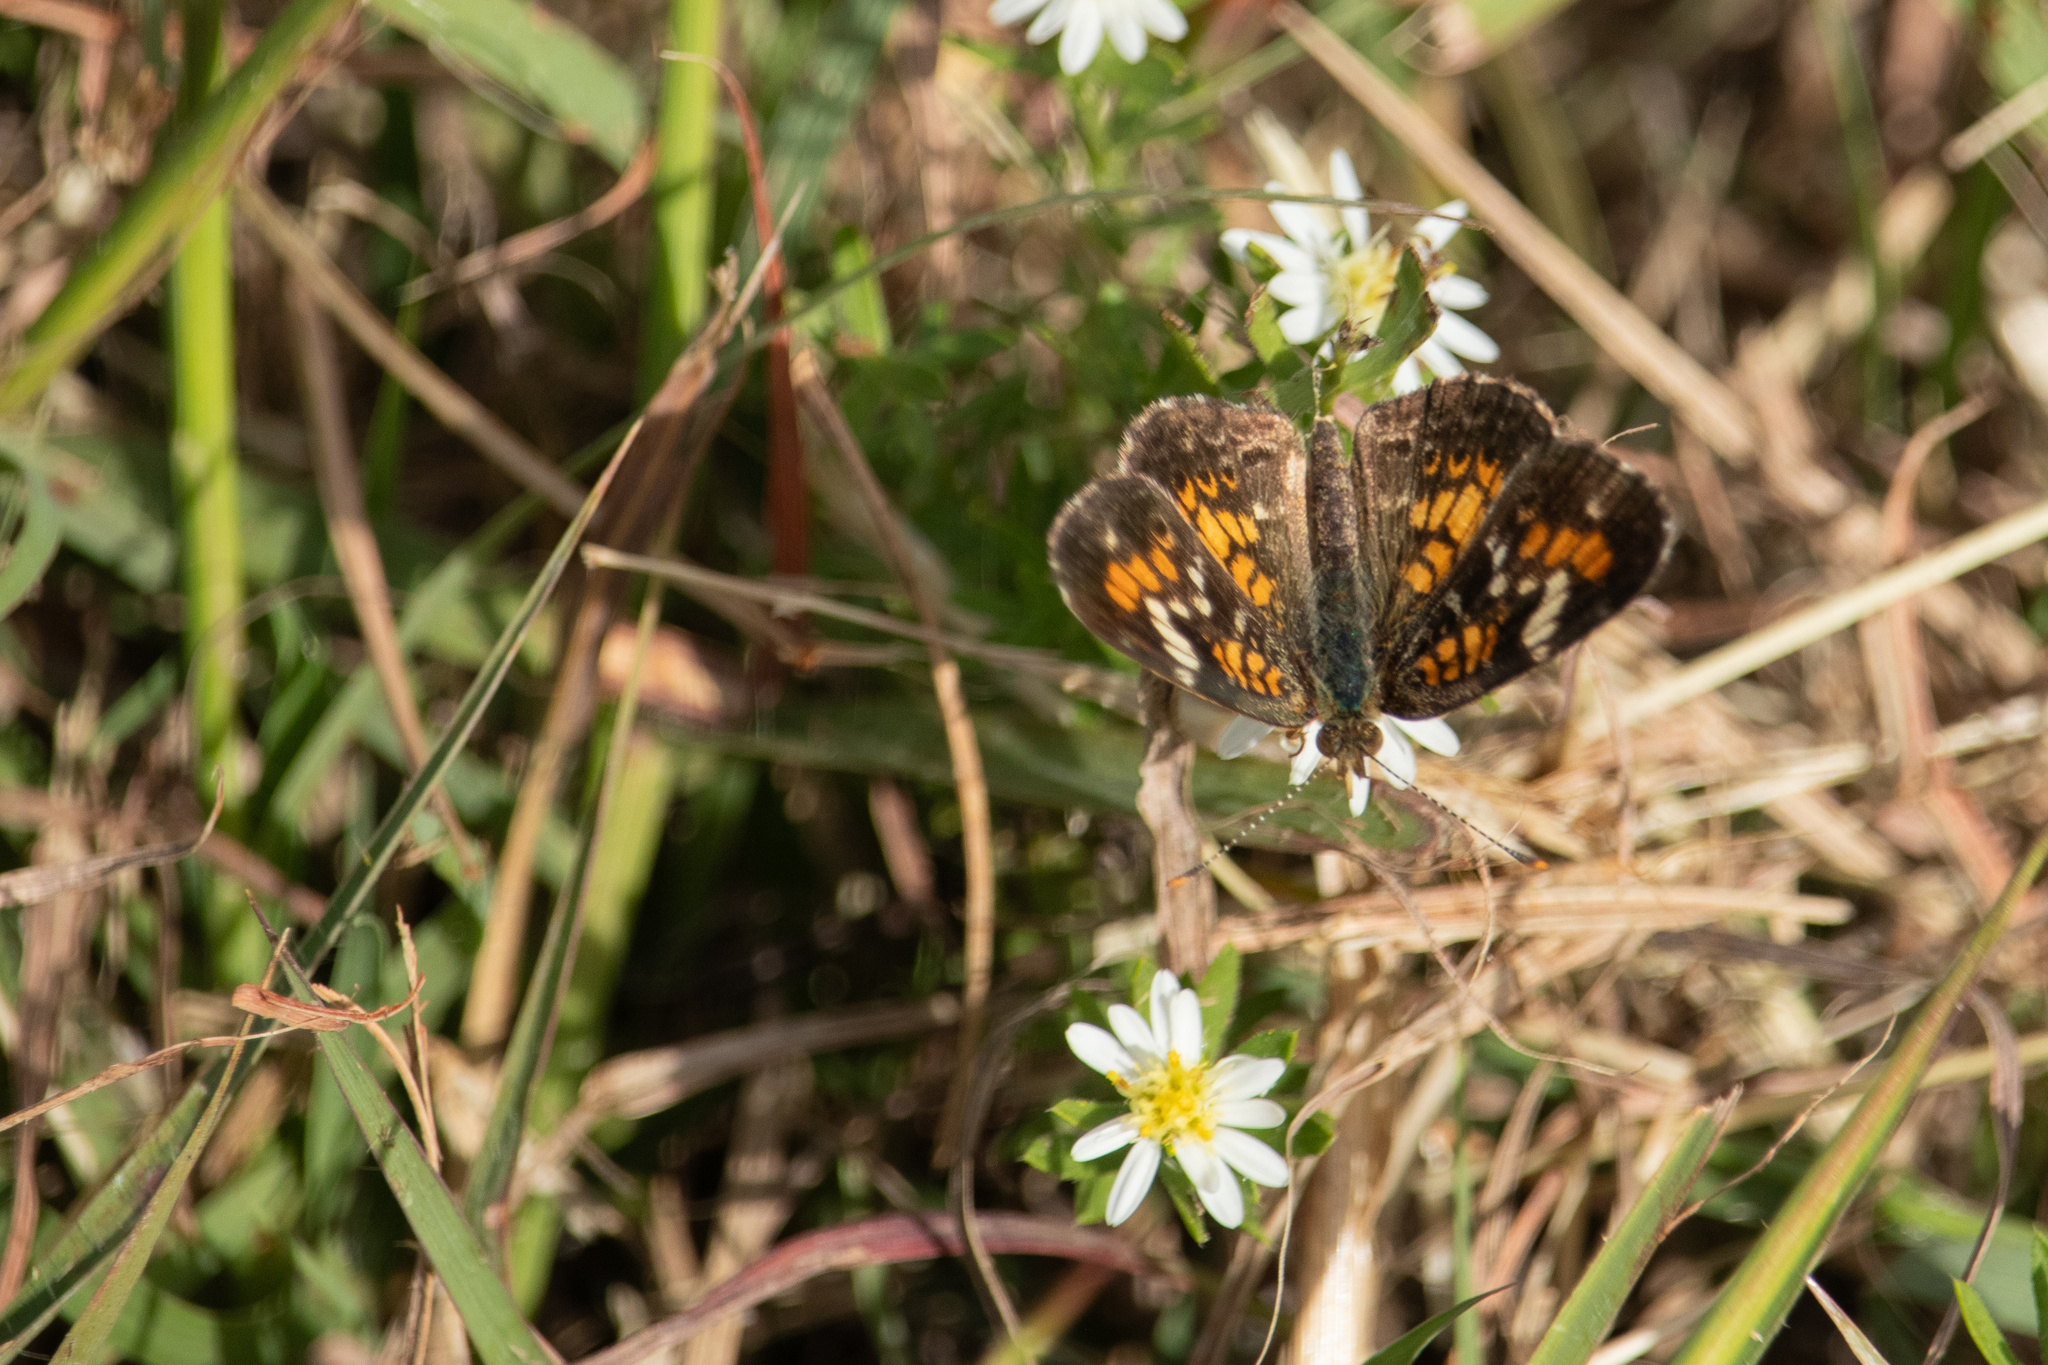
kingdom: Animalia
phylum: Arthropoda
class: Insecta
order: Lepidoptera
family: Nymphalidae
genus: Phyciodes
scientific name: Phyciodes phaon
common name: Phaon crescent
